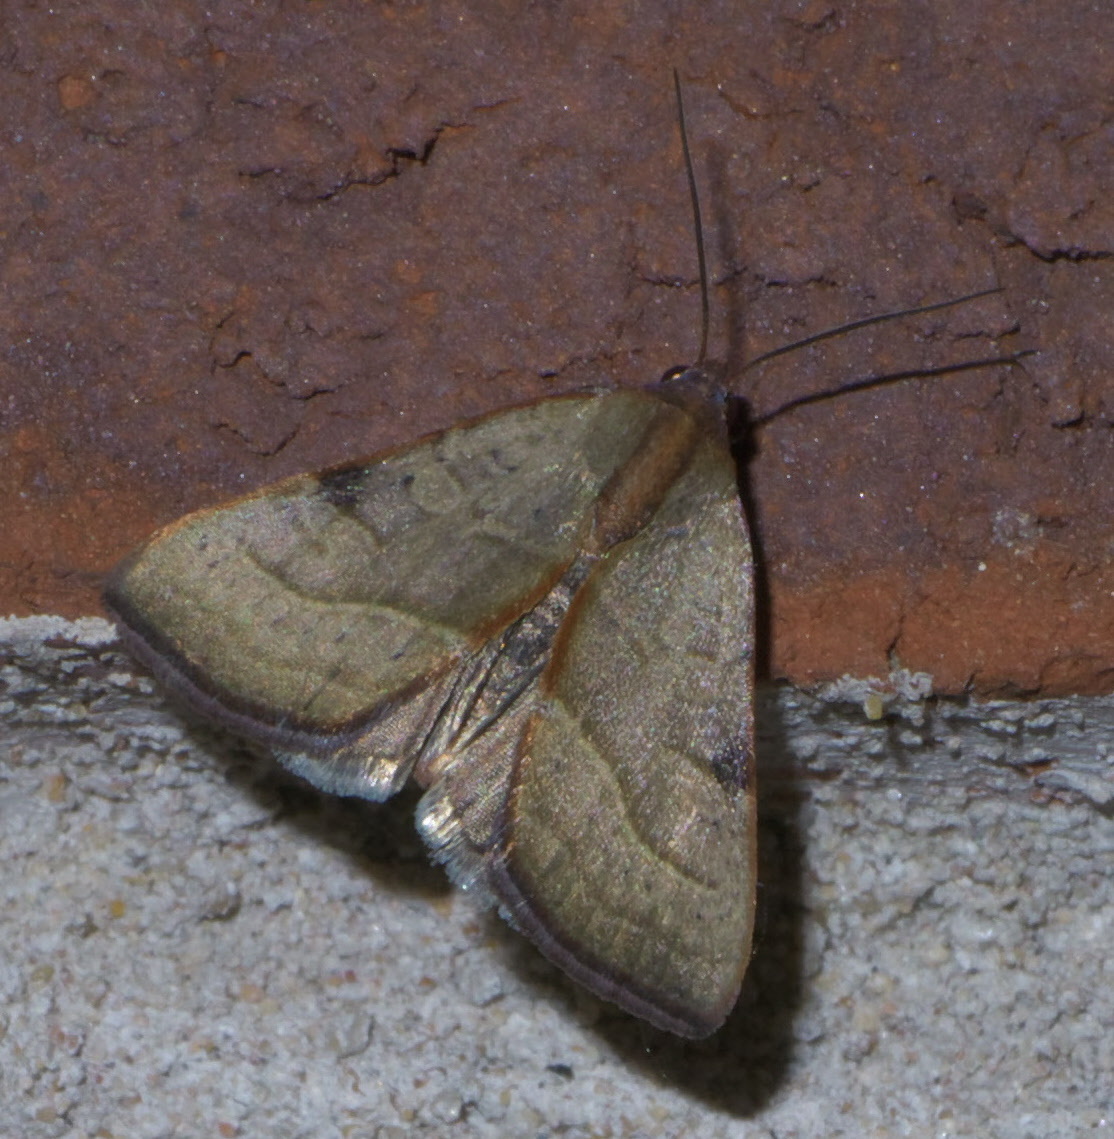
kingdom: Animalia
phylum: Arthropoda
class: Insecta
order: Lepidoptera
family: Noctuidae
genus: Galgula
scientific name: Galgula partita
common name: Wedgeling
